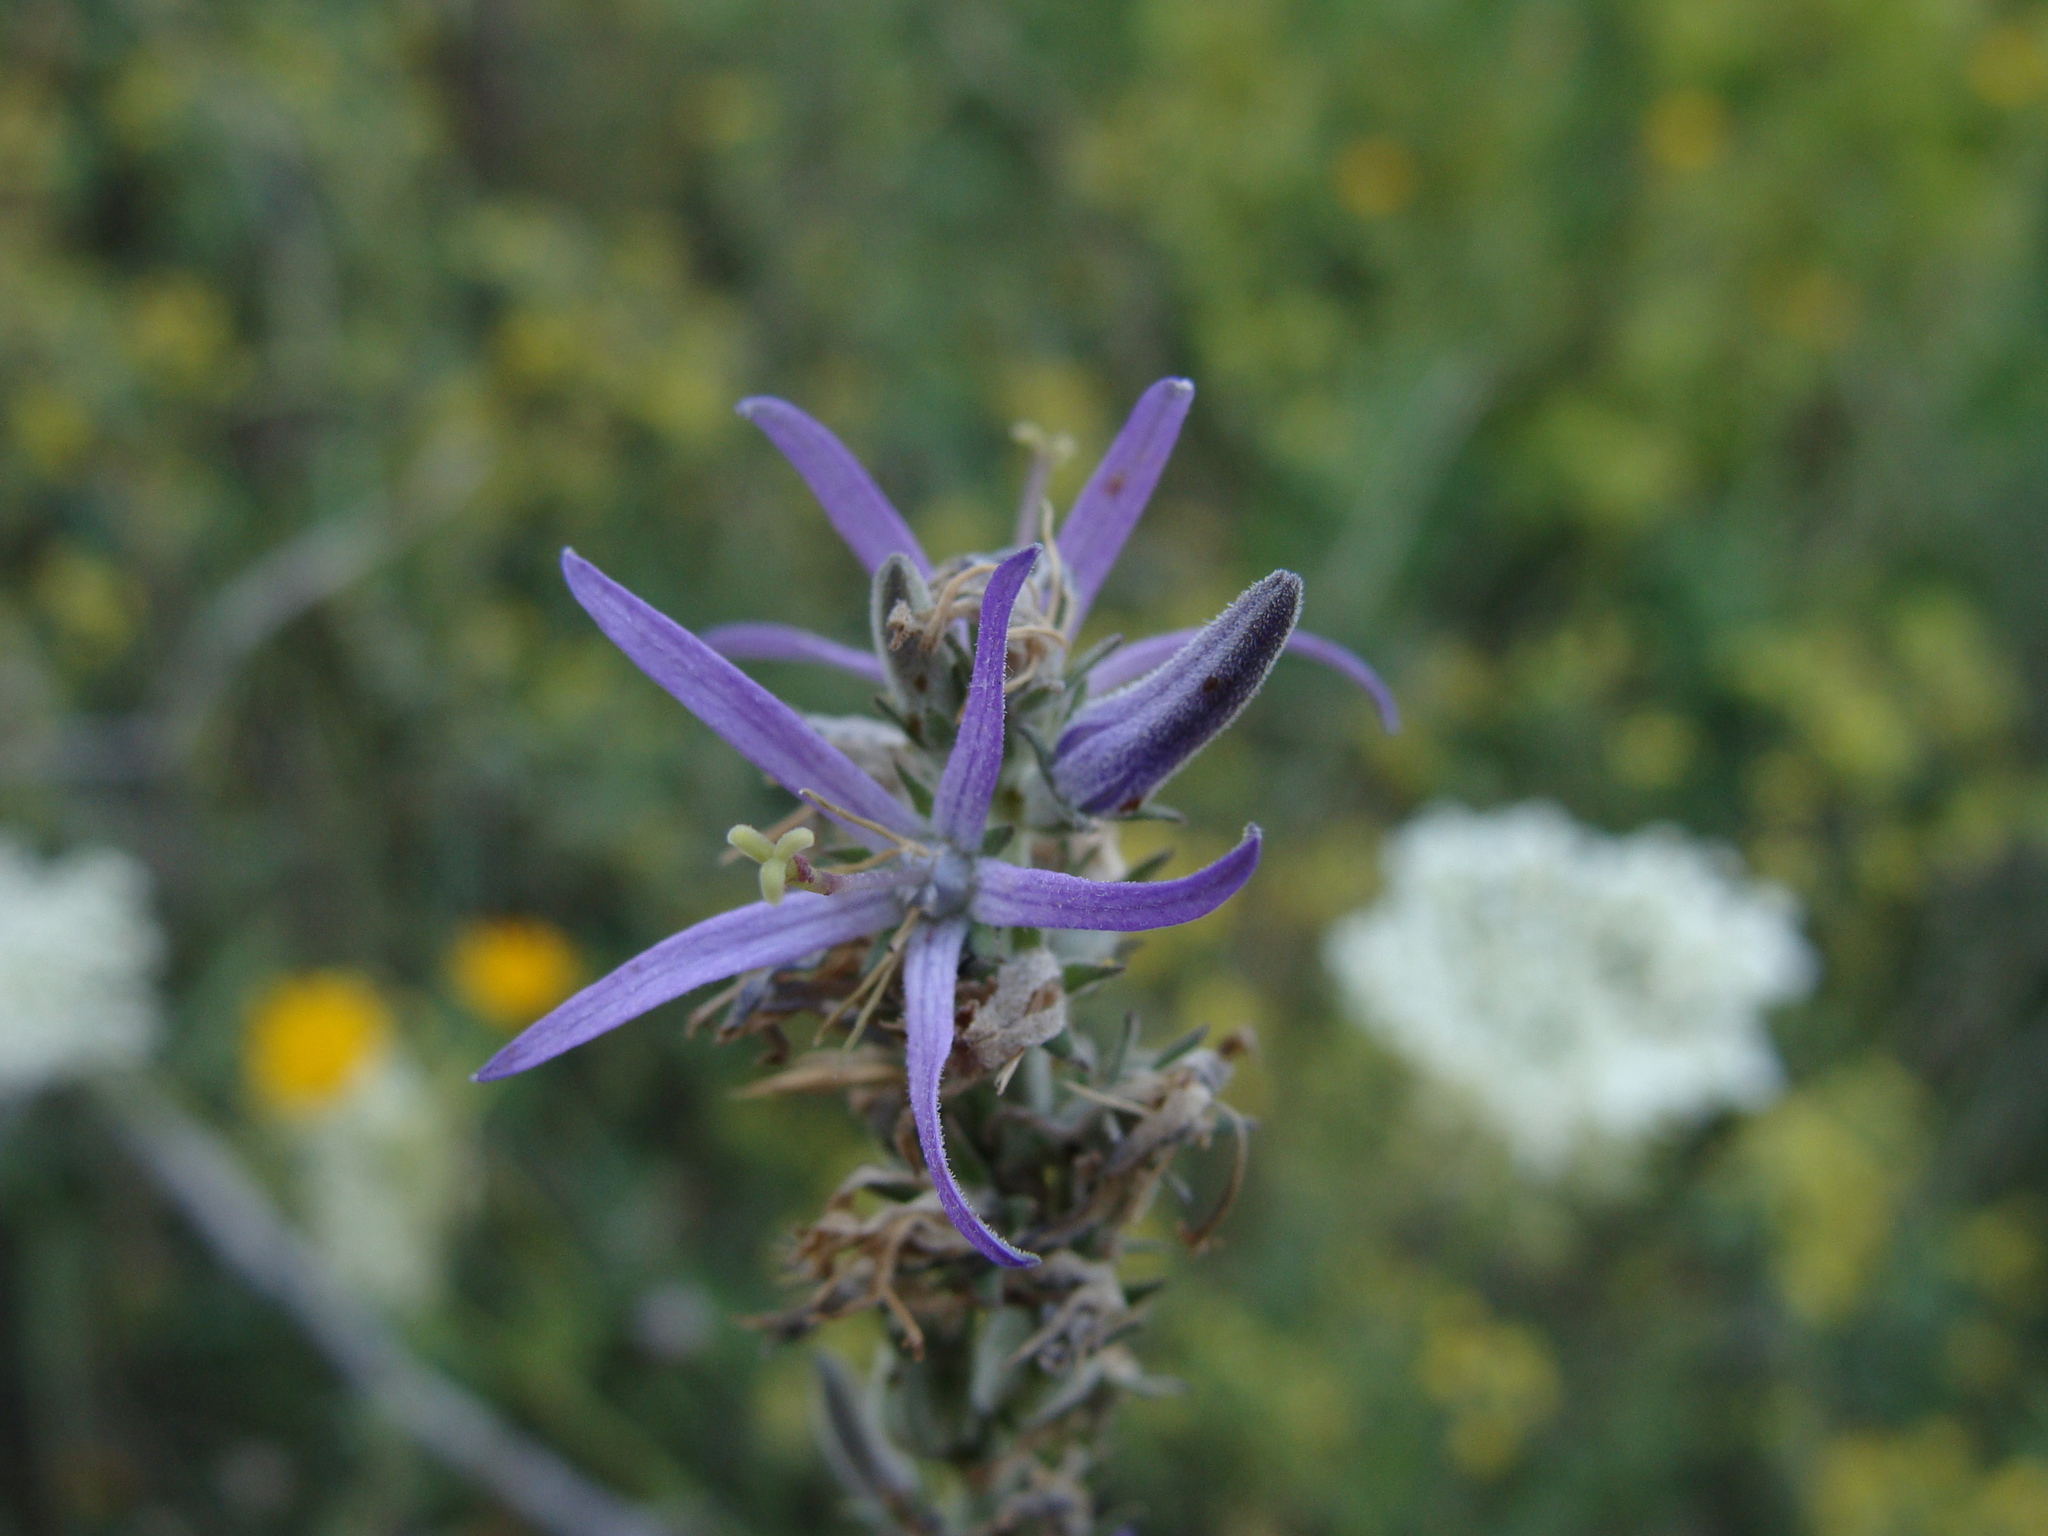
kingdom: Plantae
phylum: Tracheophyta
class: Magnoliopsida
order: Asterales
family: Campanulaceae
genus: Asyneuma
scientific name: Asyneuma canescens
